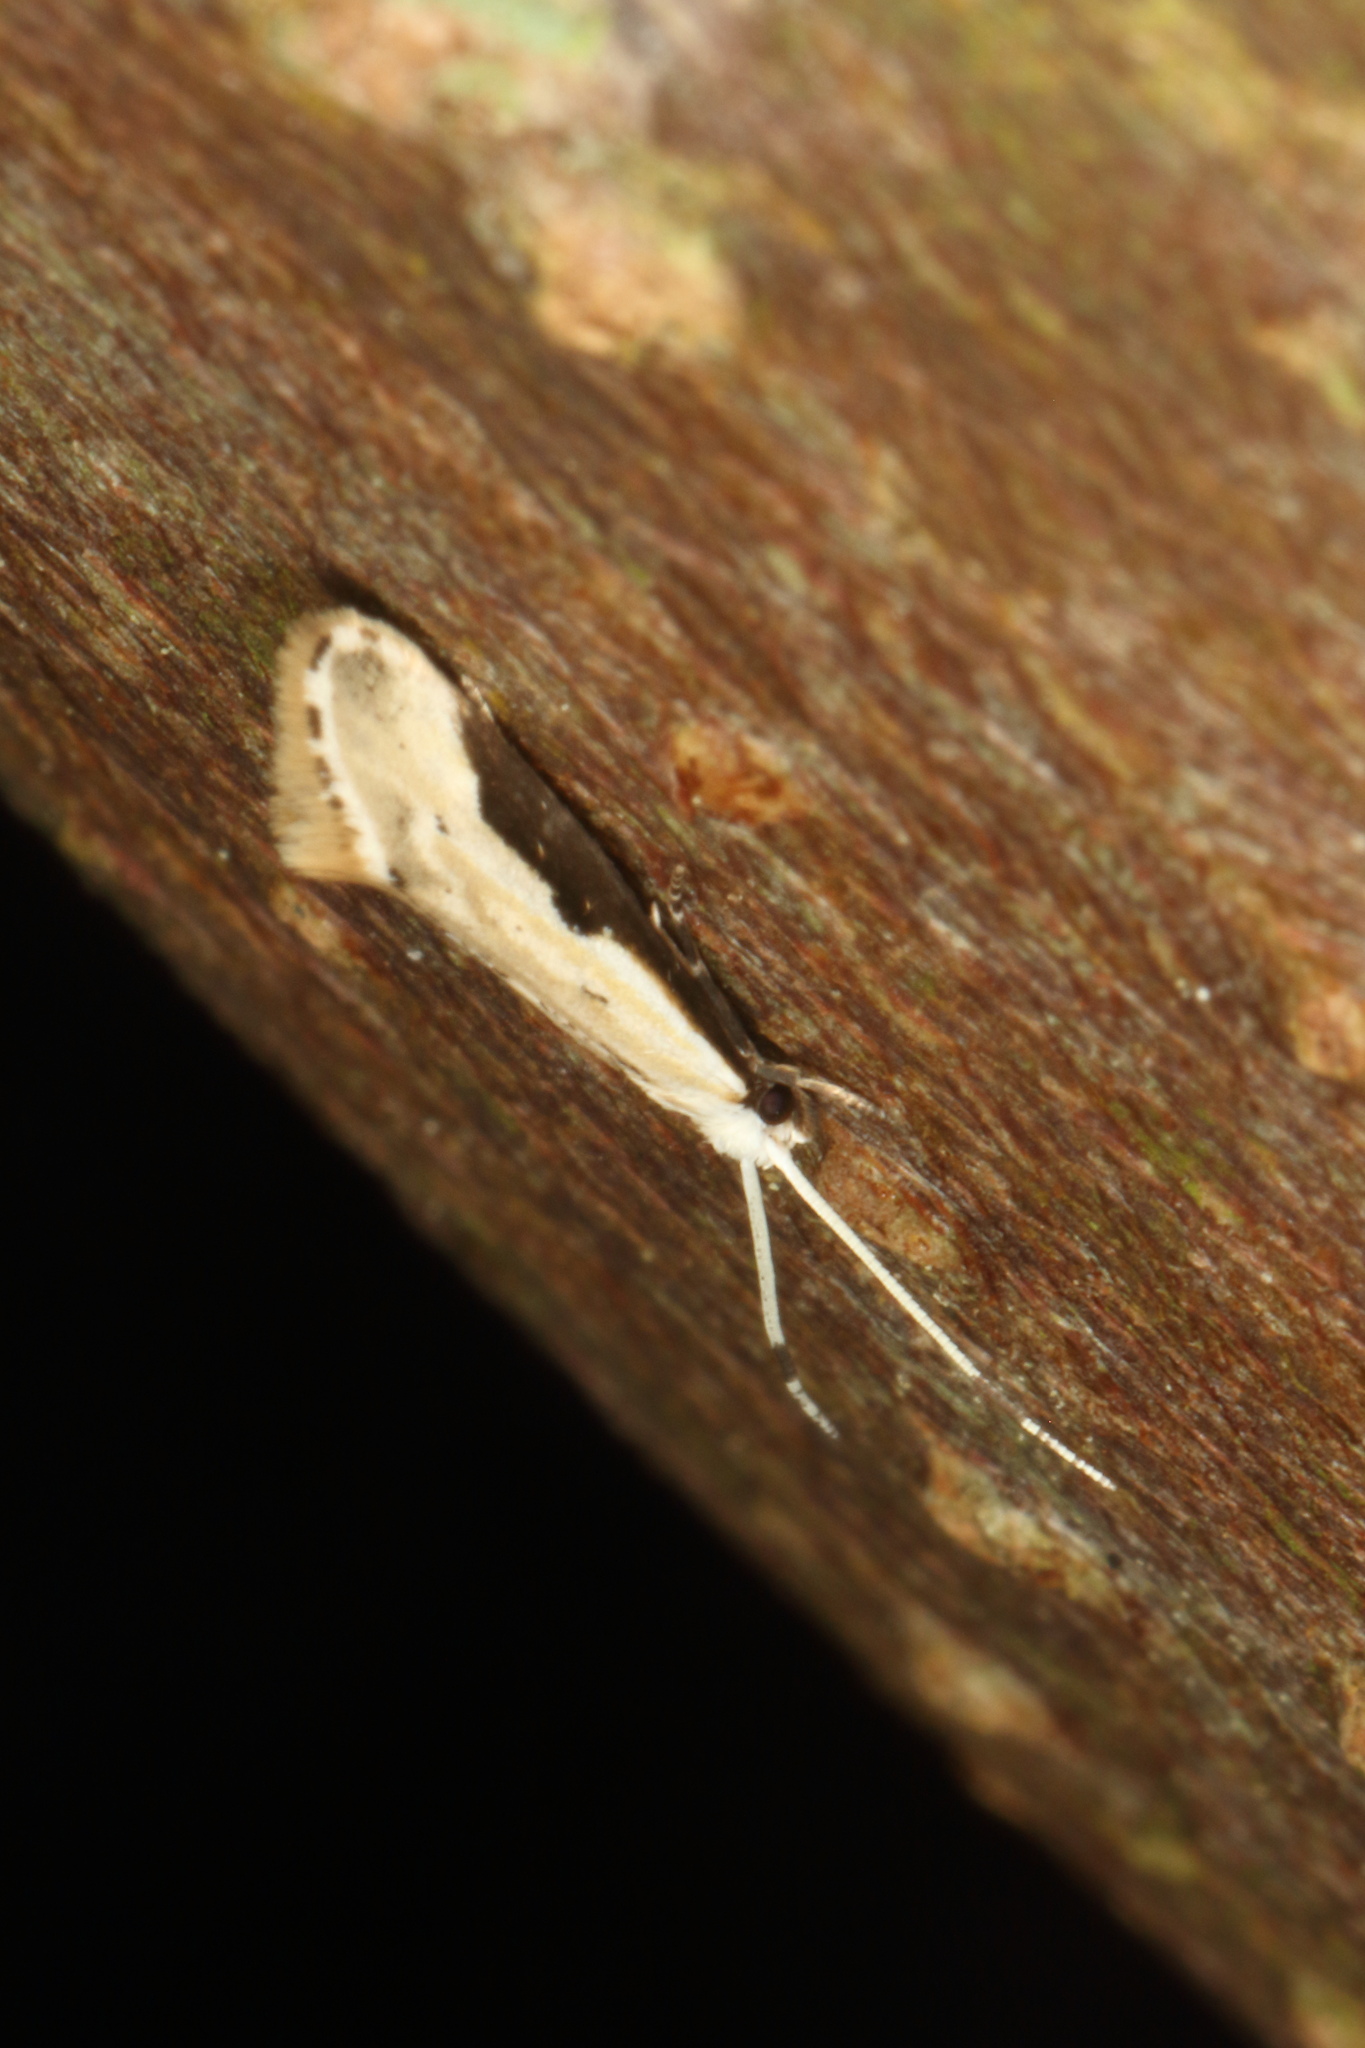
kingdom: Animalia
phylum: Arthropoda
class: Insecta
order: Lepidoptera
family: Tineidae
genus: Sagephora
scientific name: Sagephora phortegella
